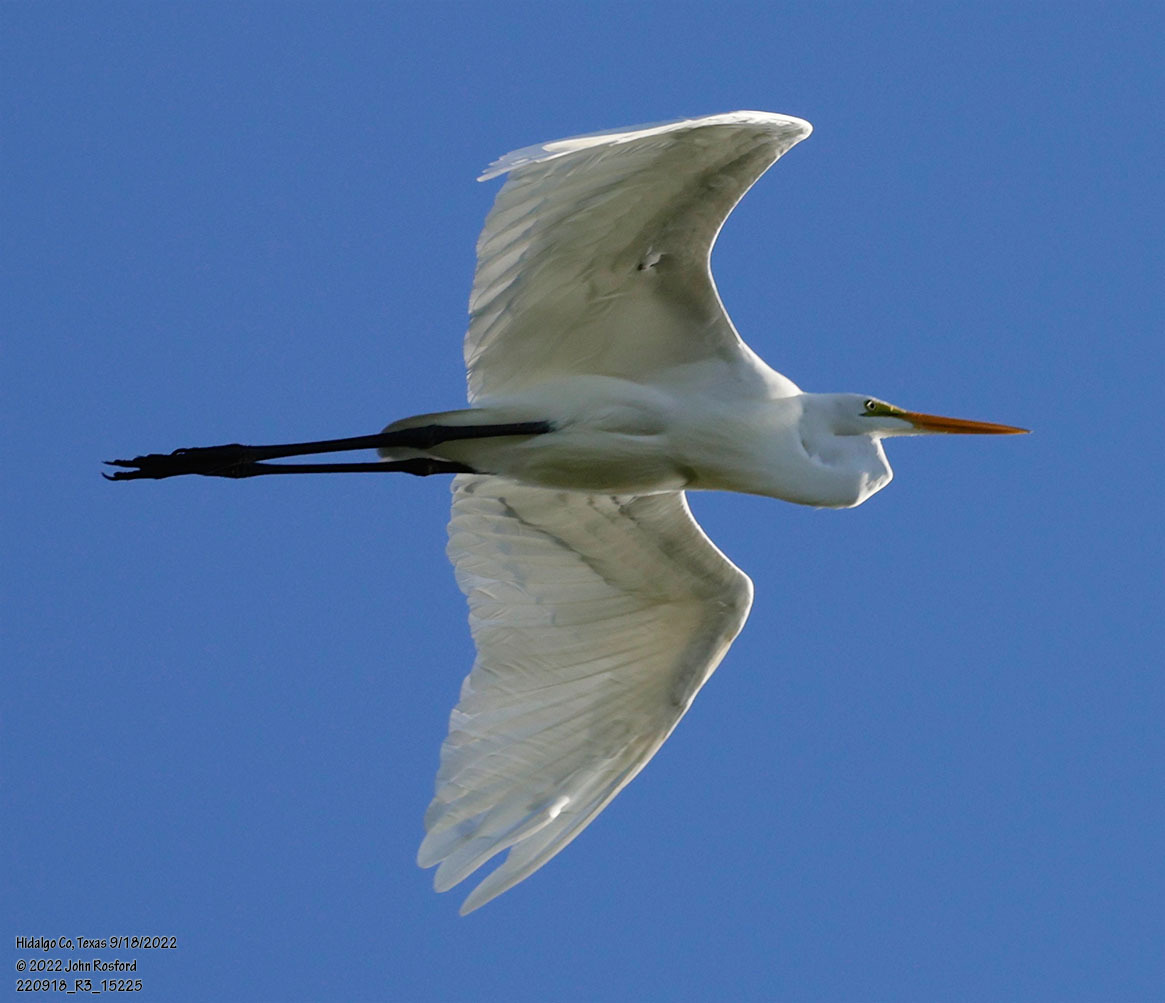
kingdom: Animalia
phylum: Chordata
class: Aves
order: Pelecaniformes
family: Ardeidae
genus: Ardea
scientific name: Ardea alba
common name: Great egret
